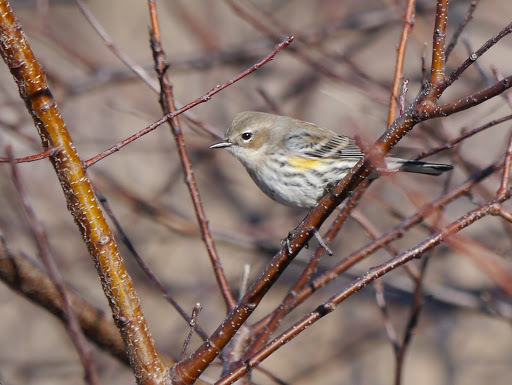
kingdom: Animalia
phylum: Chordata
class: Aves
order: Passeriformes
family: Parulidae
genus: Setophaga
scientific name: Setophaga coronata
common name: Myrtle warbler
